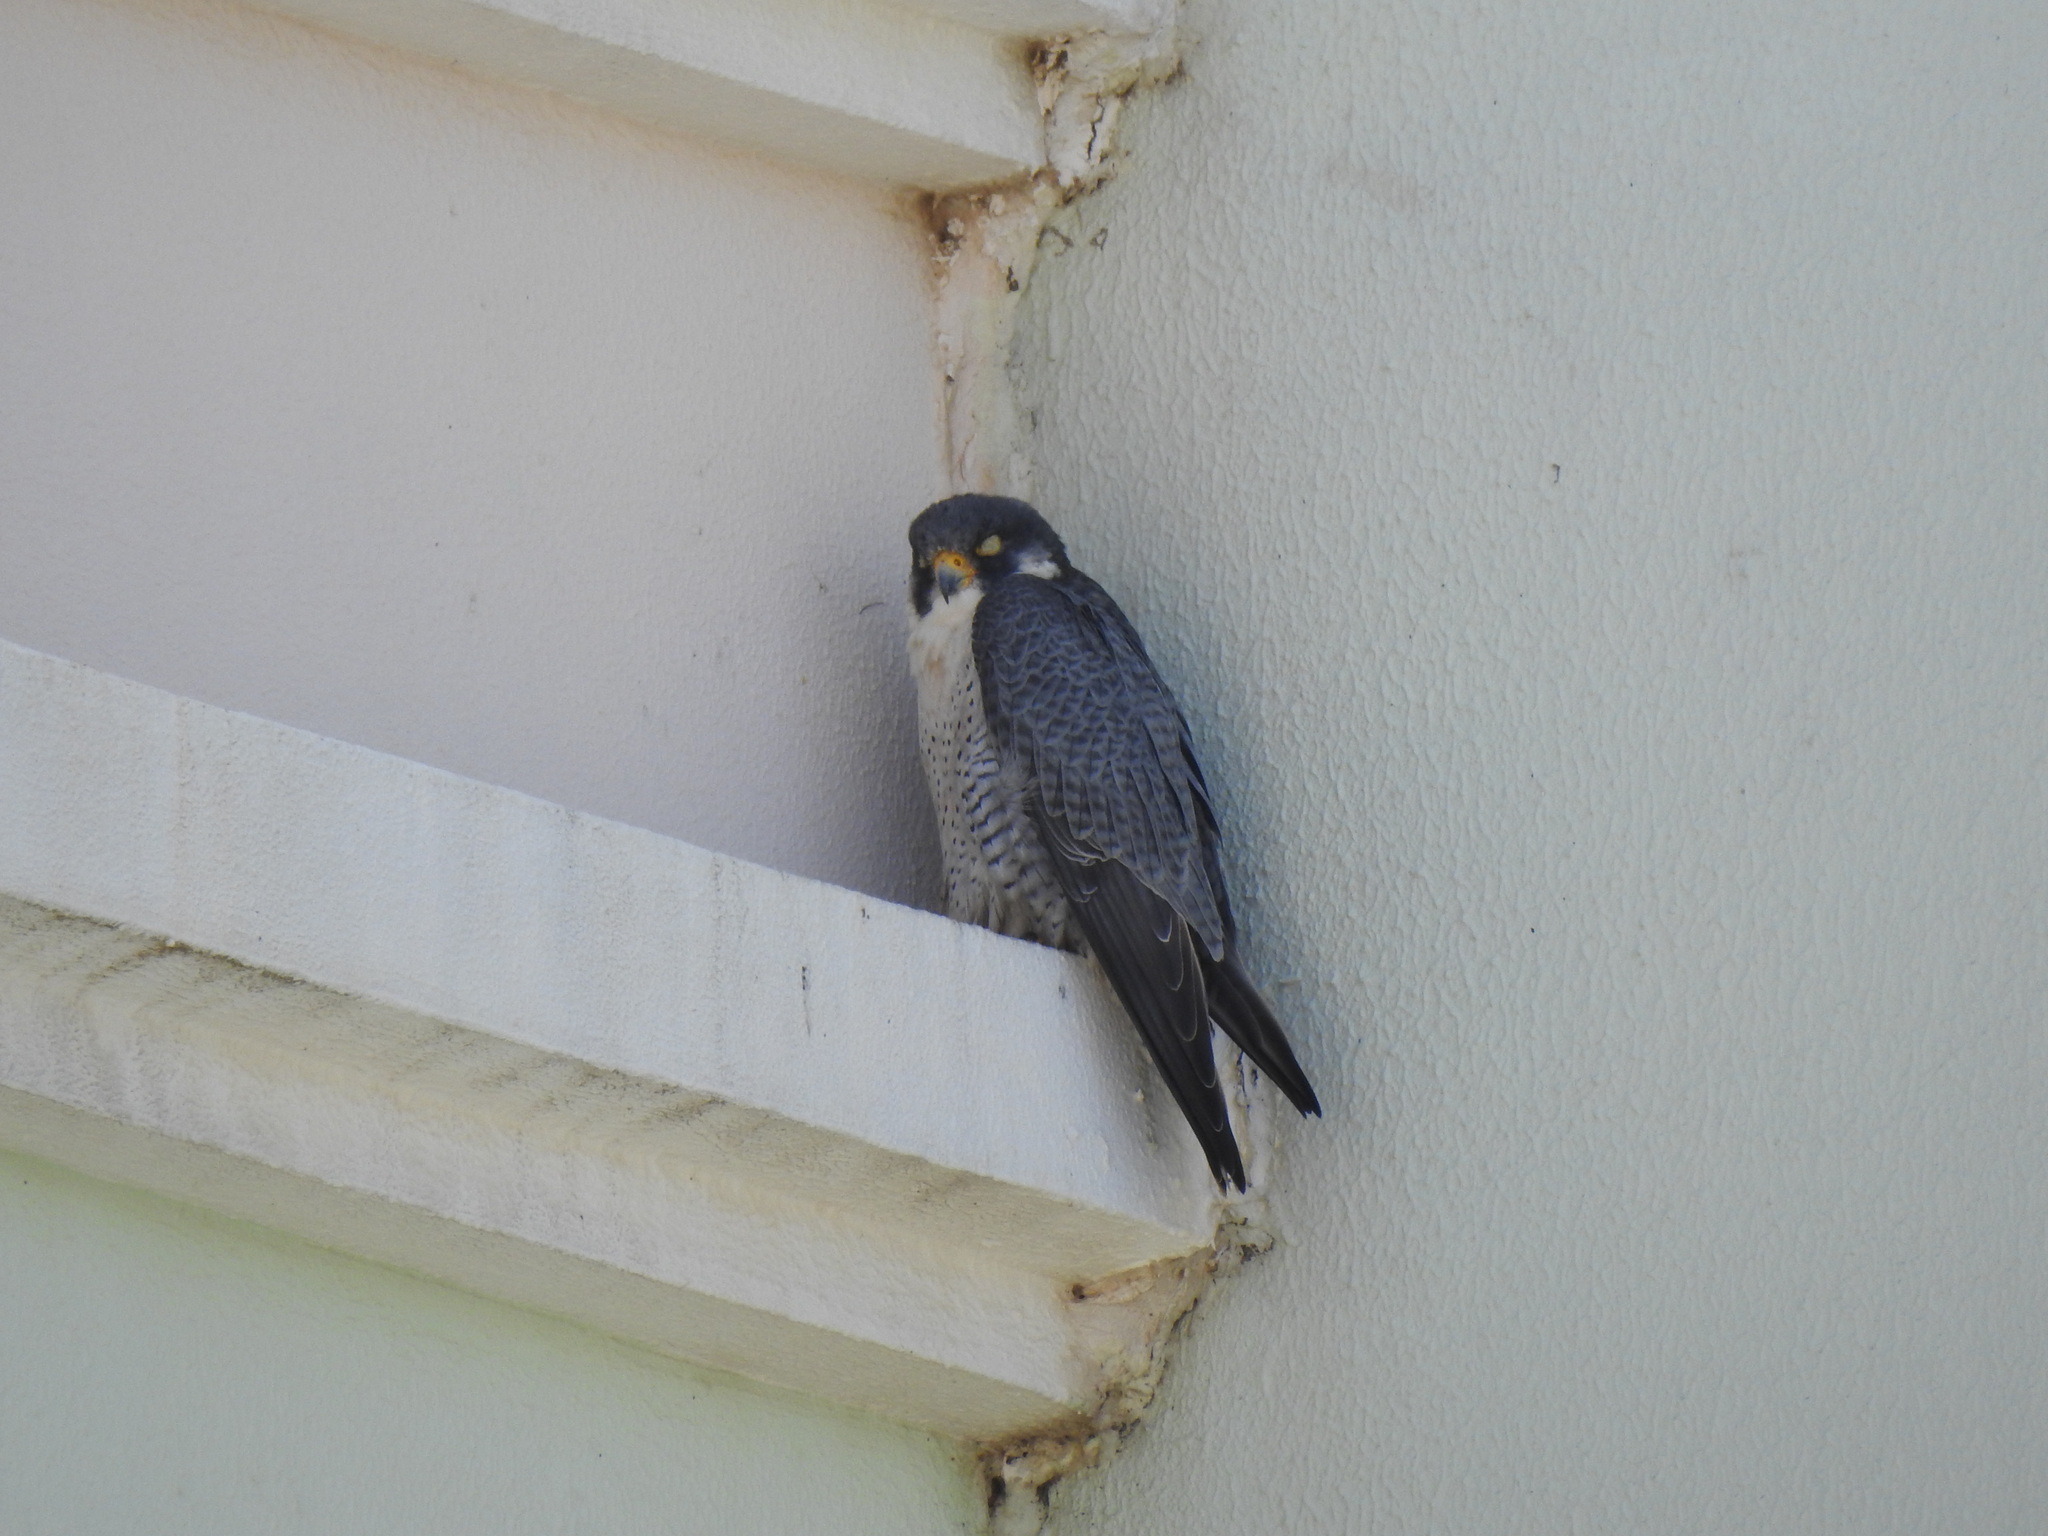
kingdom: Animalia
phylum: Chordata
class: Aves
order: Falconiformes
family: Falconidae
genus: Falco
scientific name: Falco peregrinus
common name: Peregrine falcon
